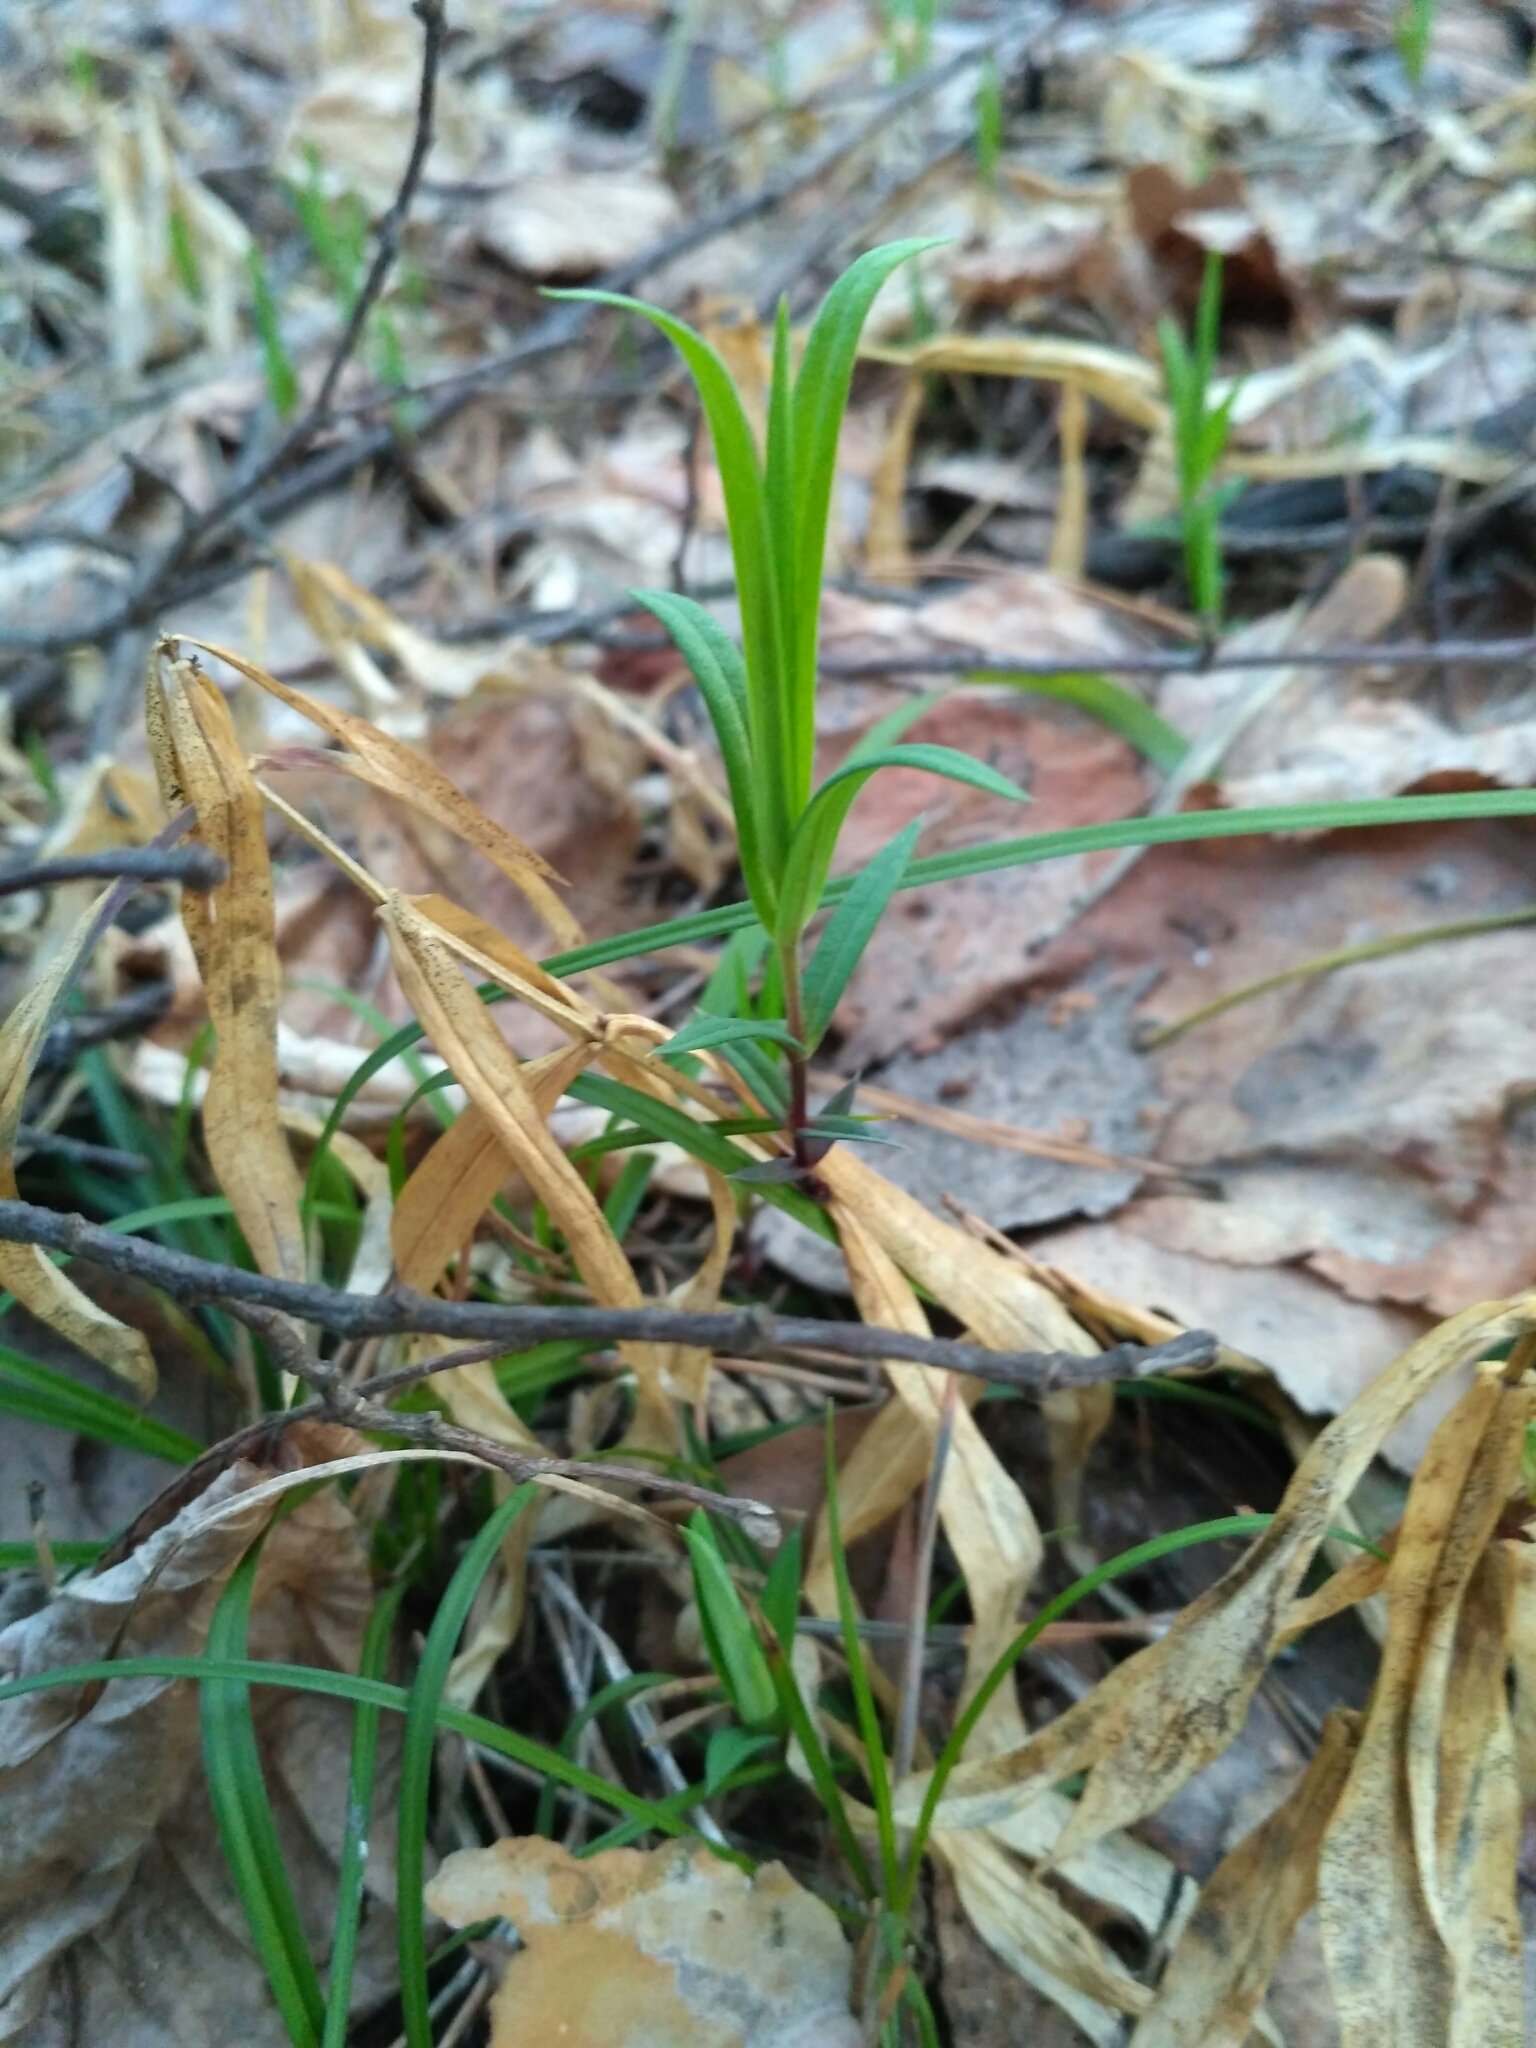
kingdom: Plantae
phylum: Tracheophyta
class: Magnoliopsida
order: Caryophyllales
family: Caryophyllaceae
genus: Rabelera
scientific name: Rabelera holostea
